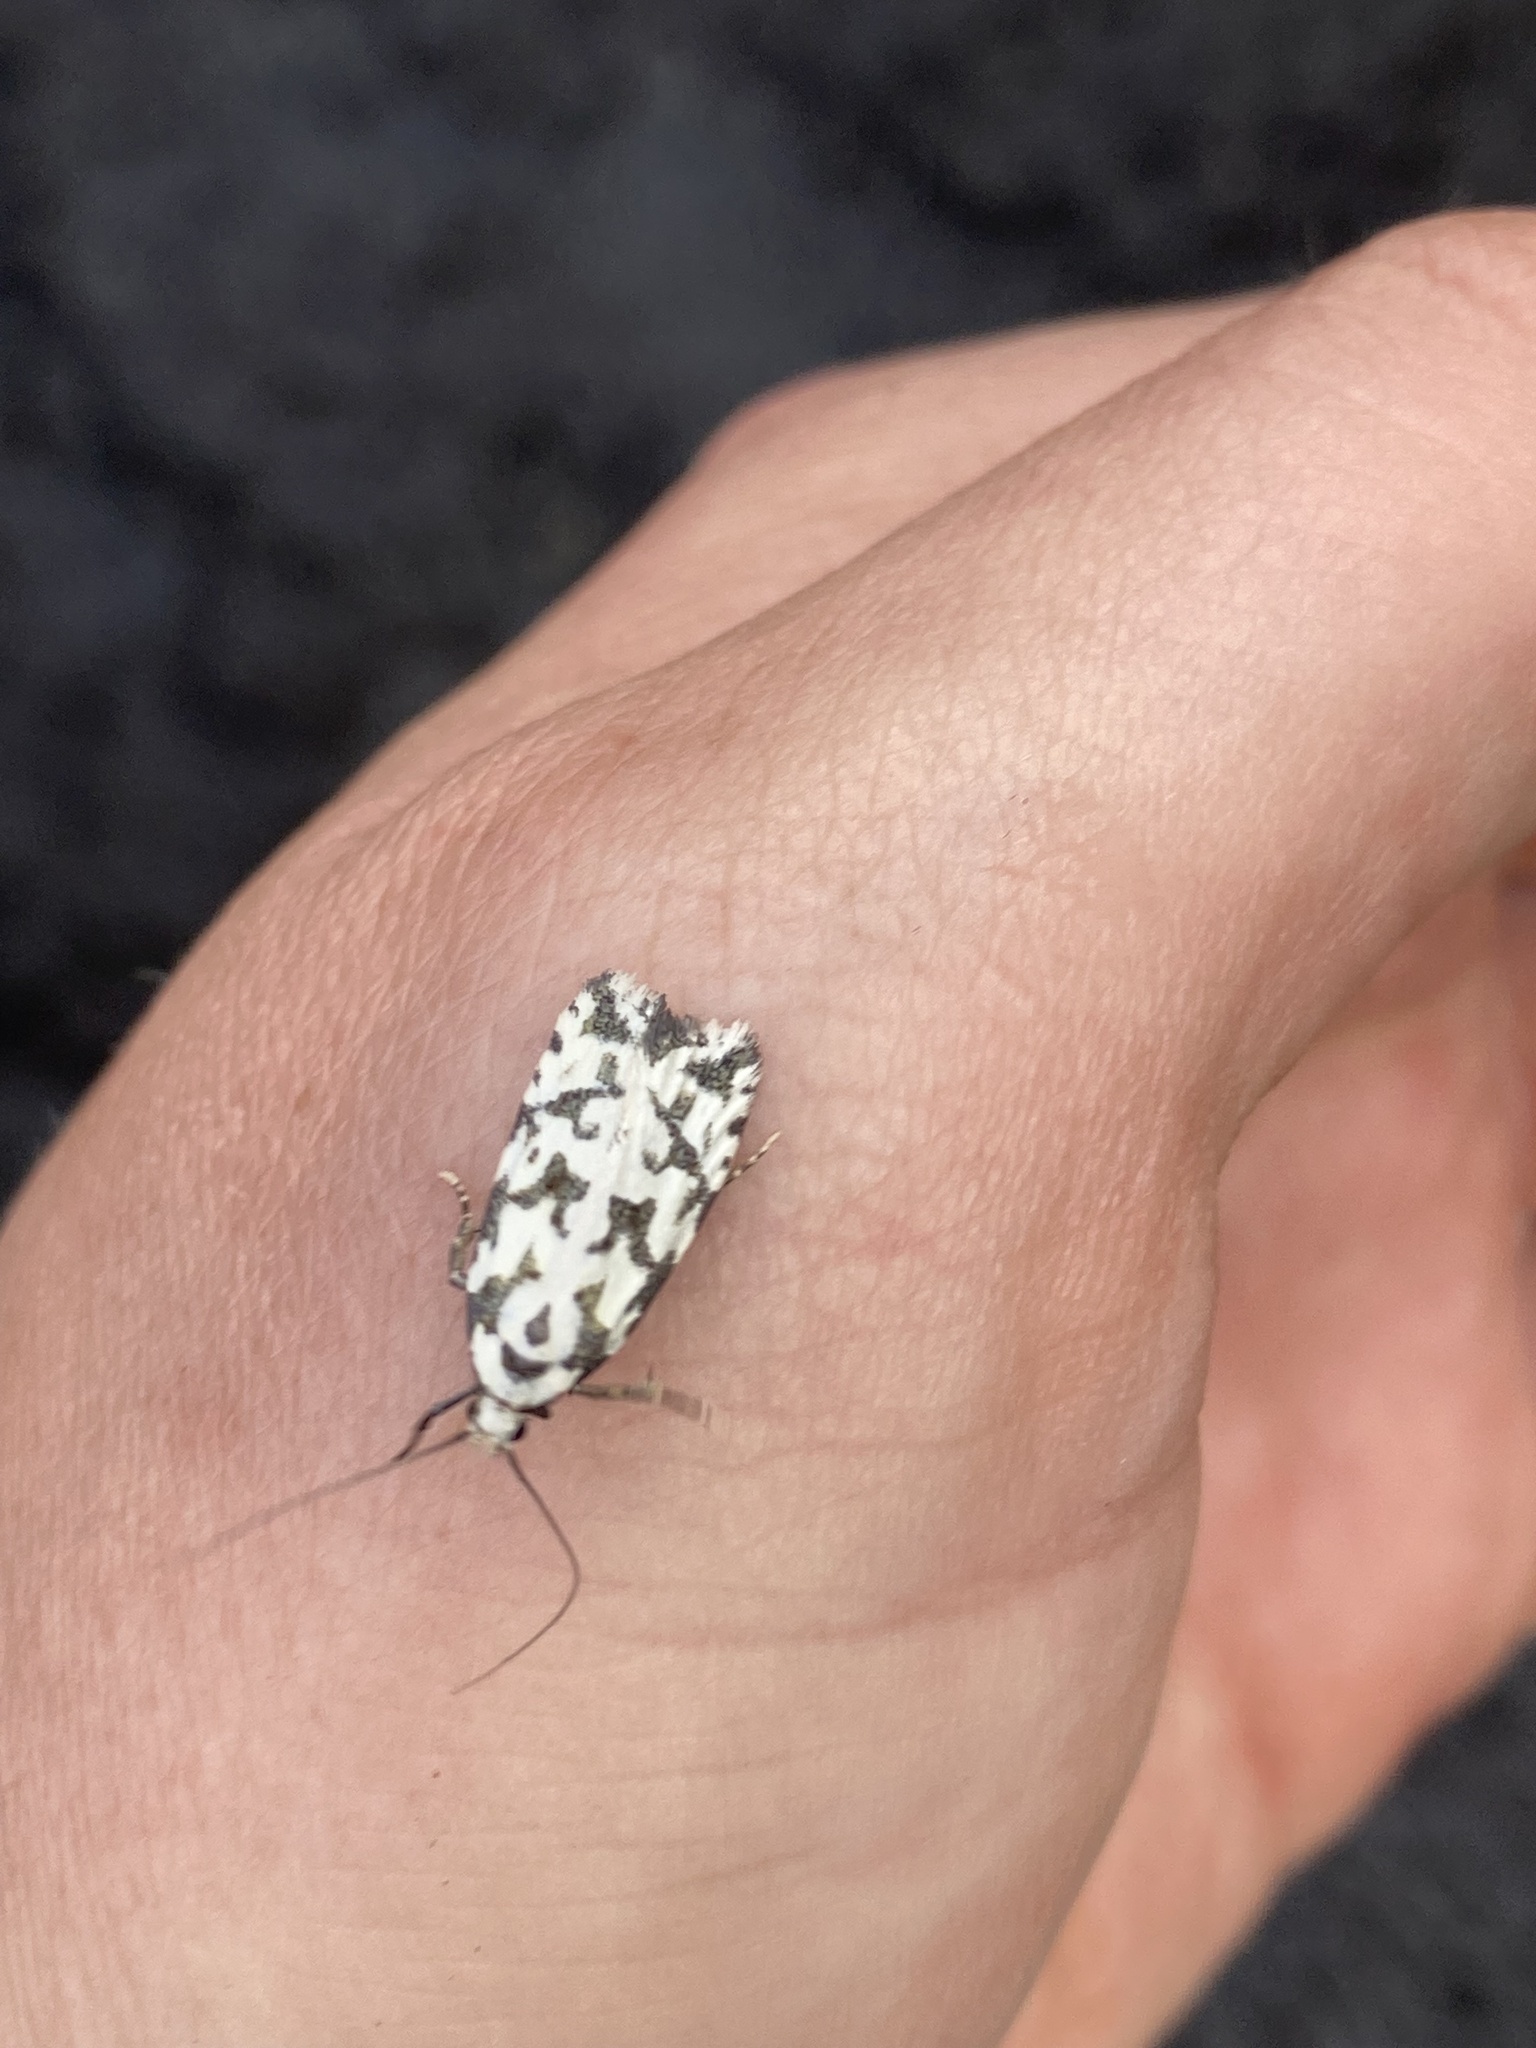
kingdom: Animalia
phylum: Arthropoda
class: Insecta
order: Lepidoptera
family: Oecophoridae
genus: Izatha
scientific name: Izatha
